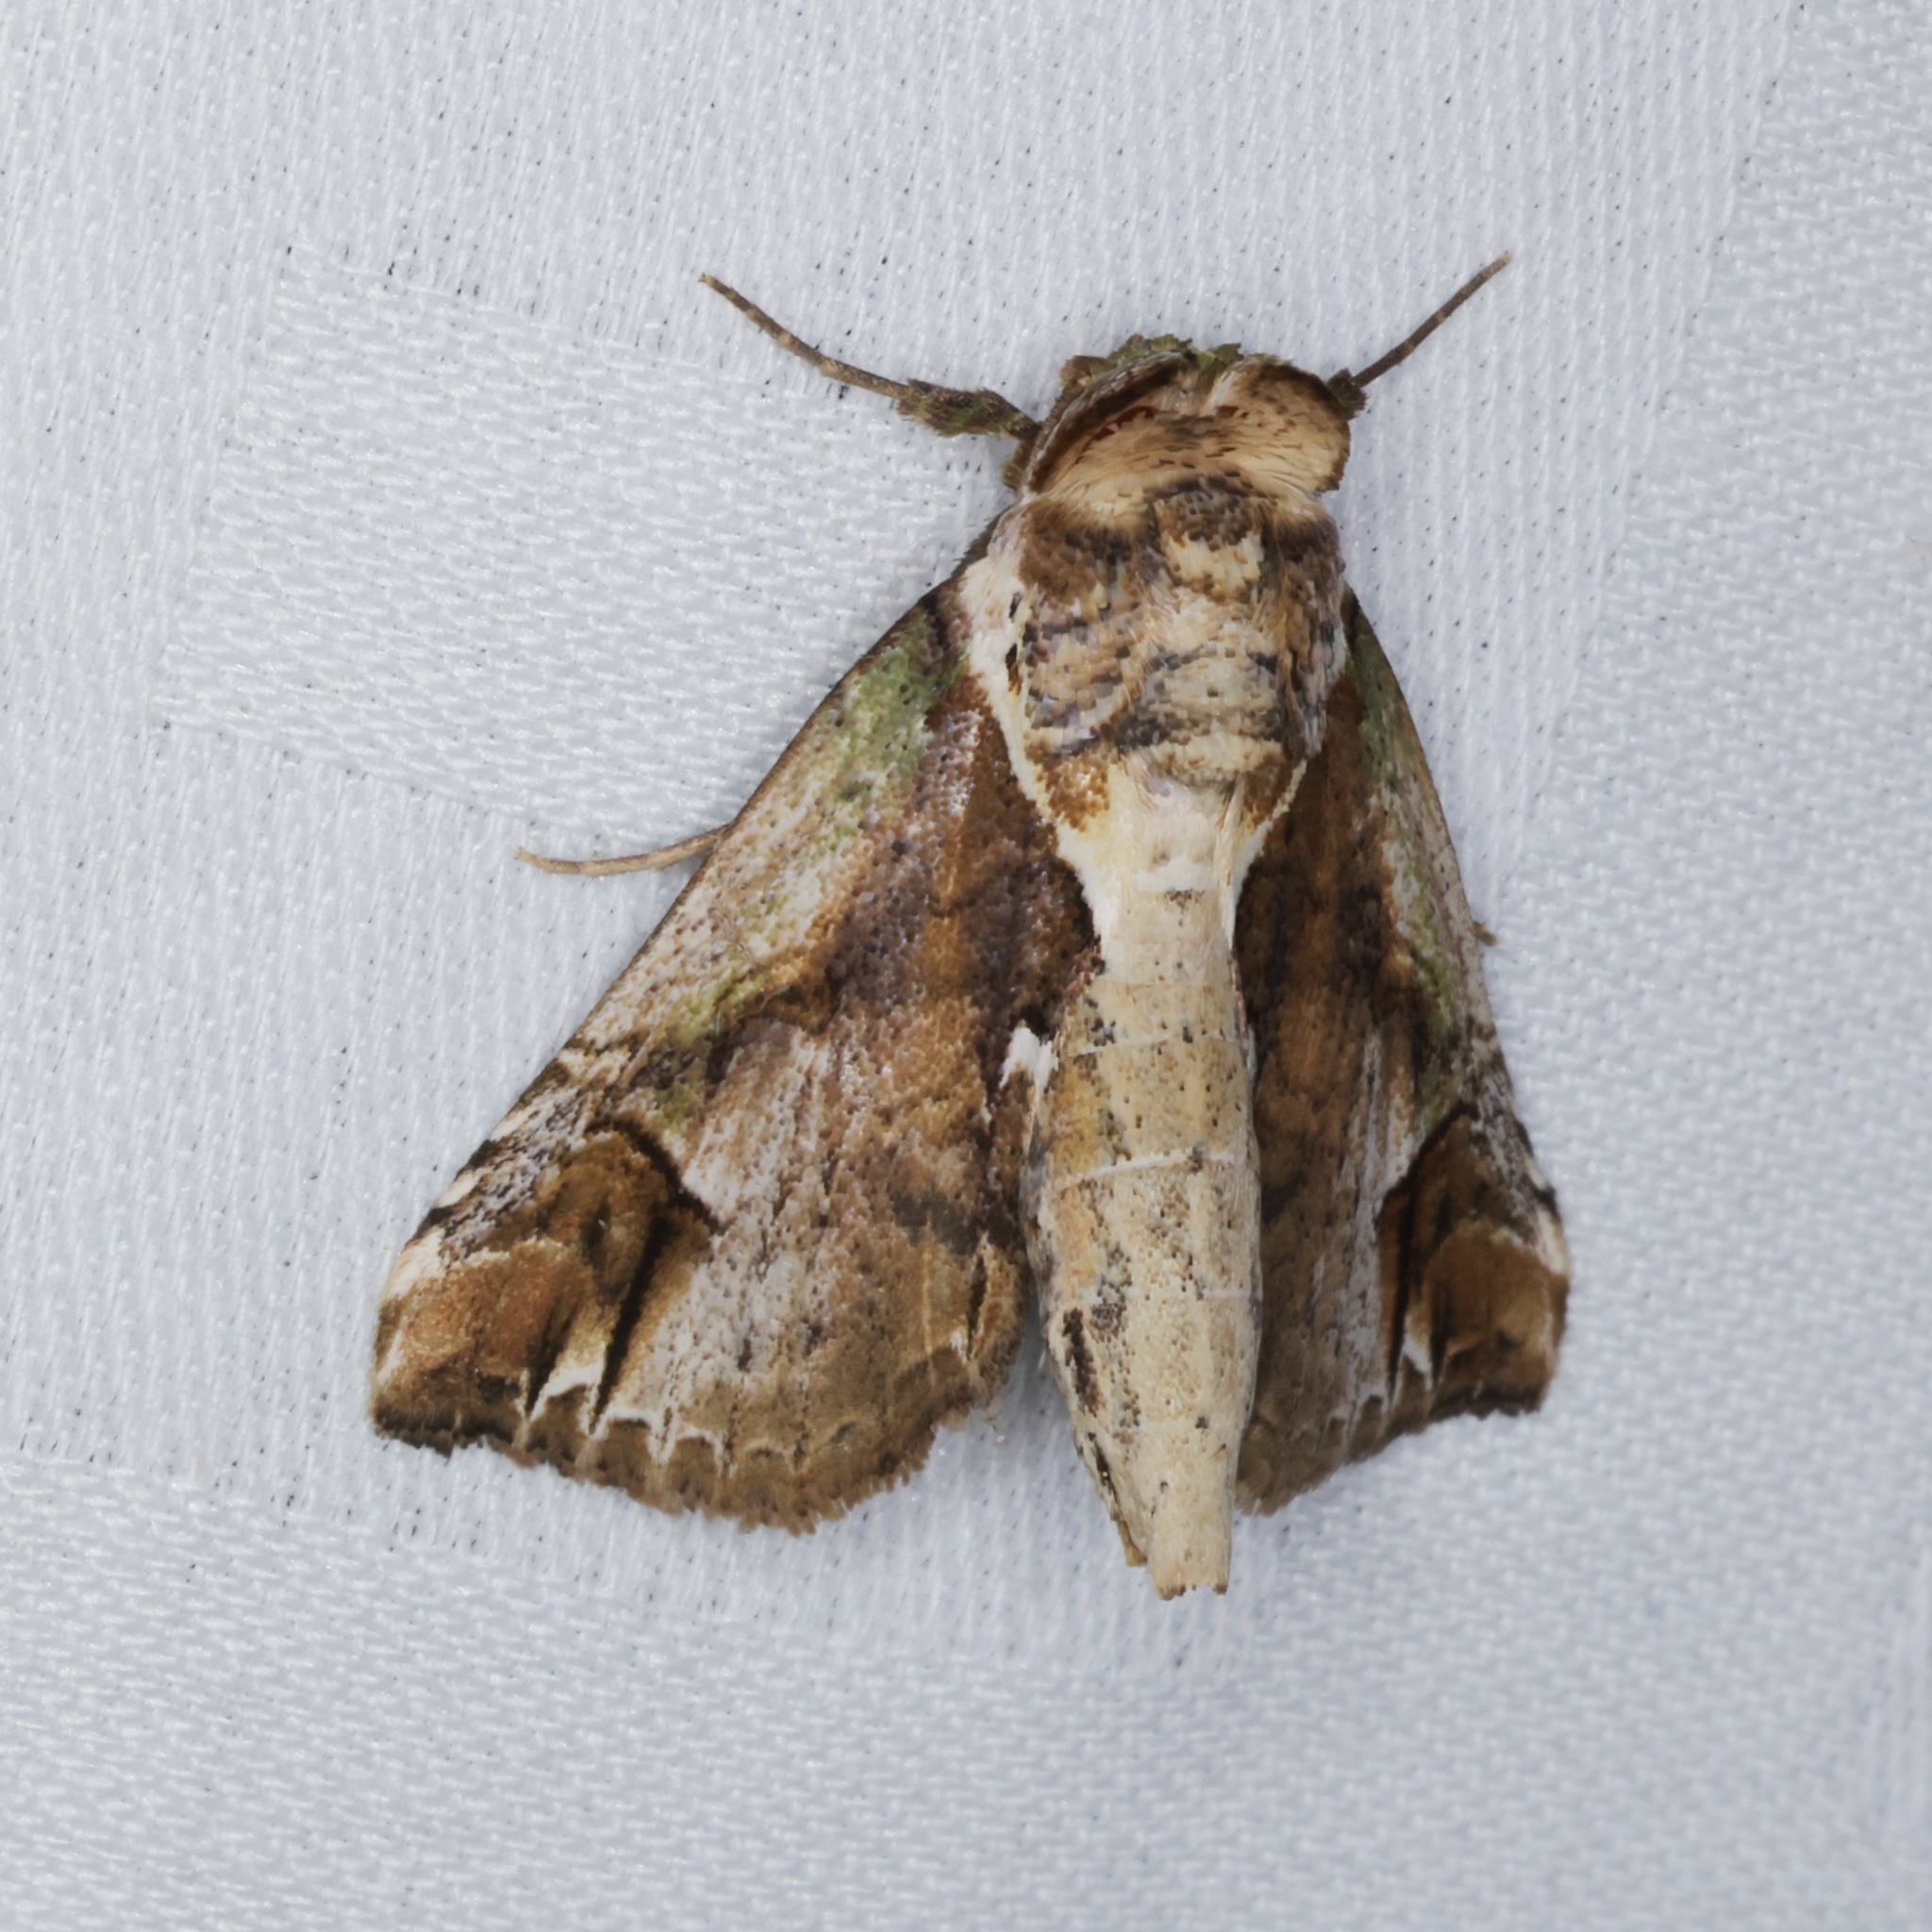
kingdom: Animalia
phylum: Arthropoda
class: Insecta
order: Lepidoptera
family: Nolidae
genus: Risoba
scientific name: Risoba basalis
